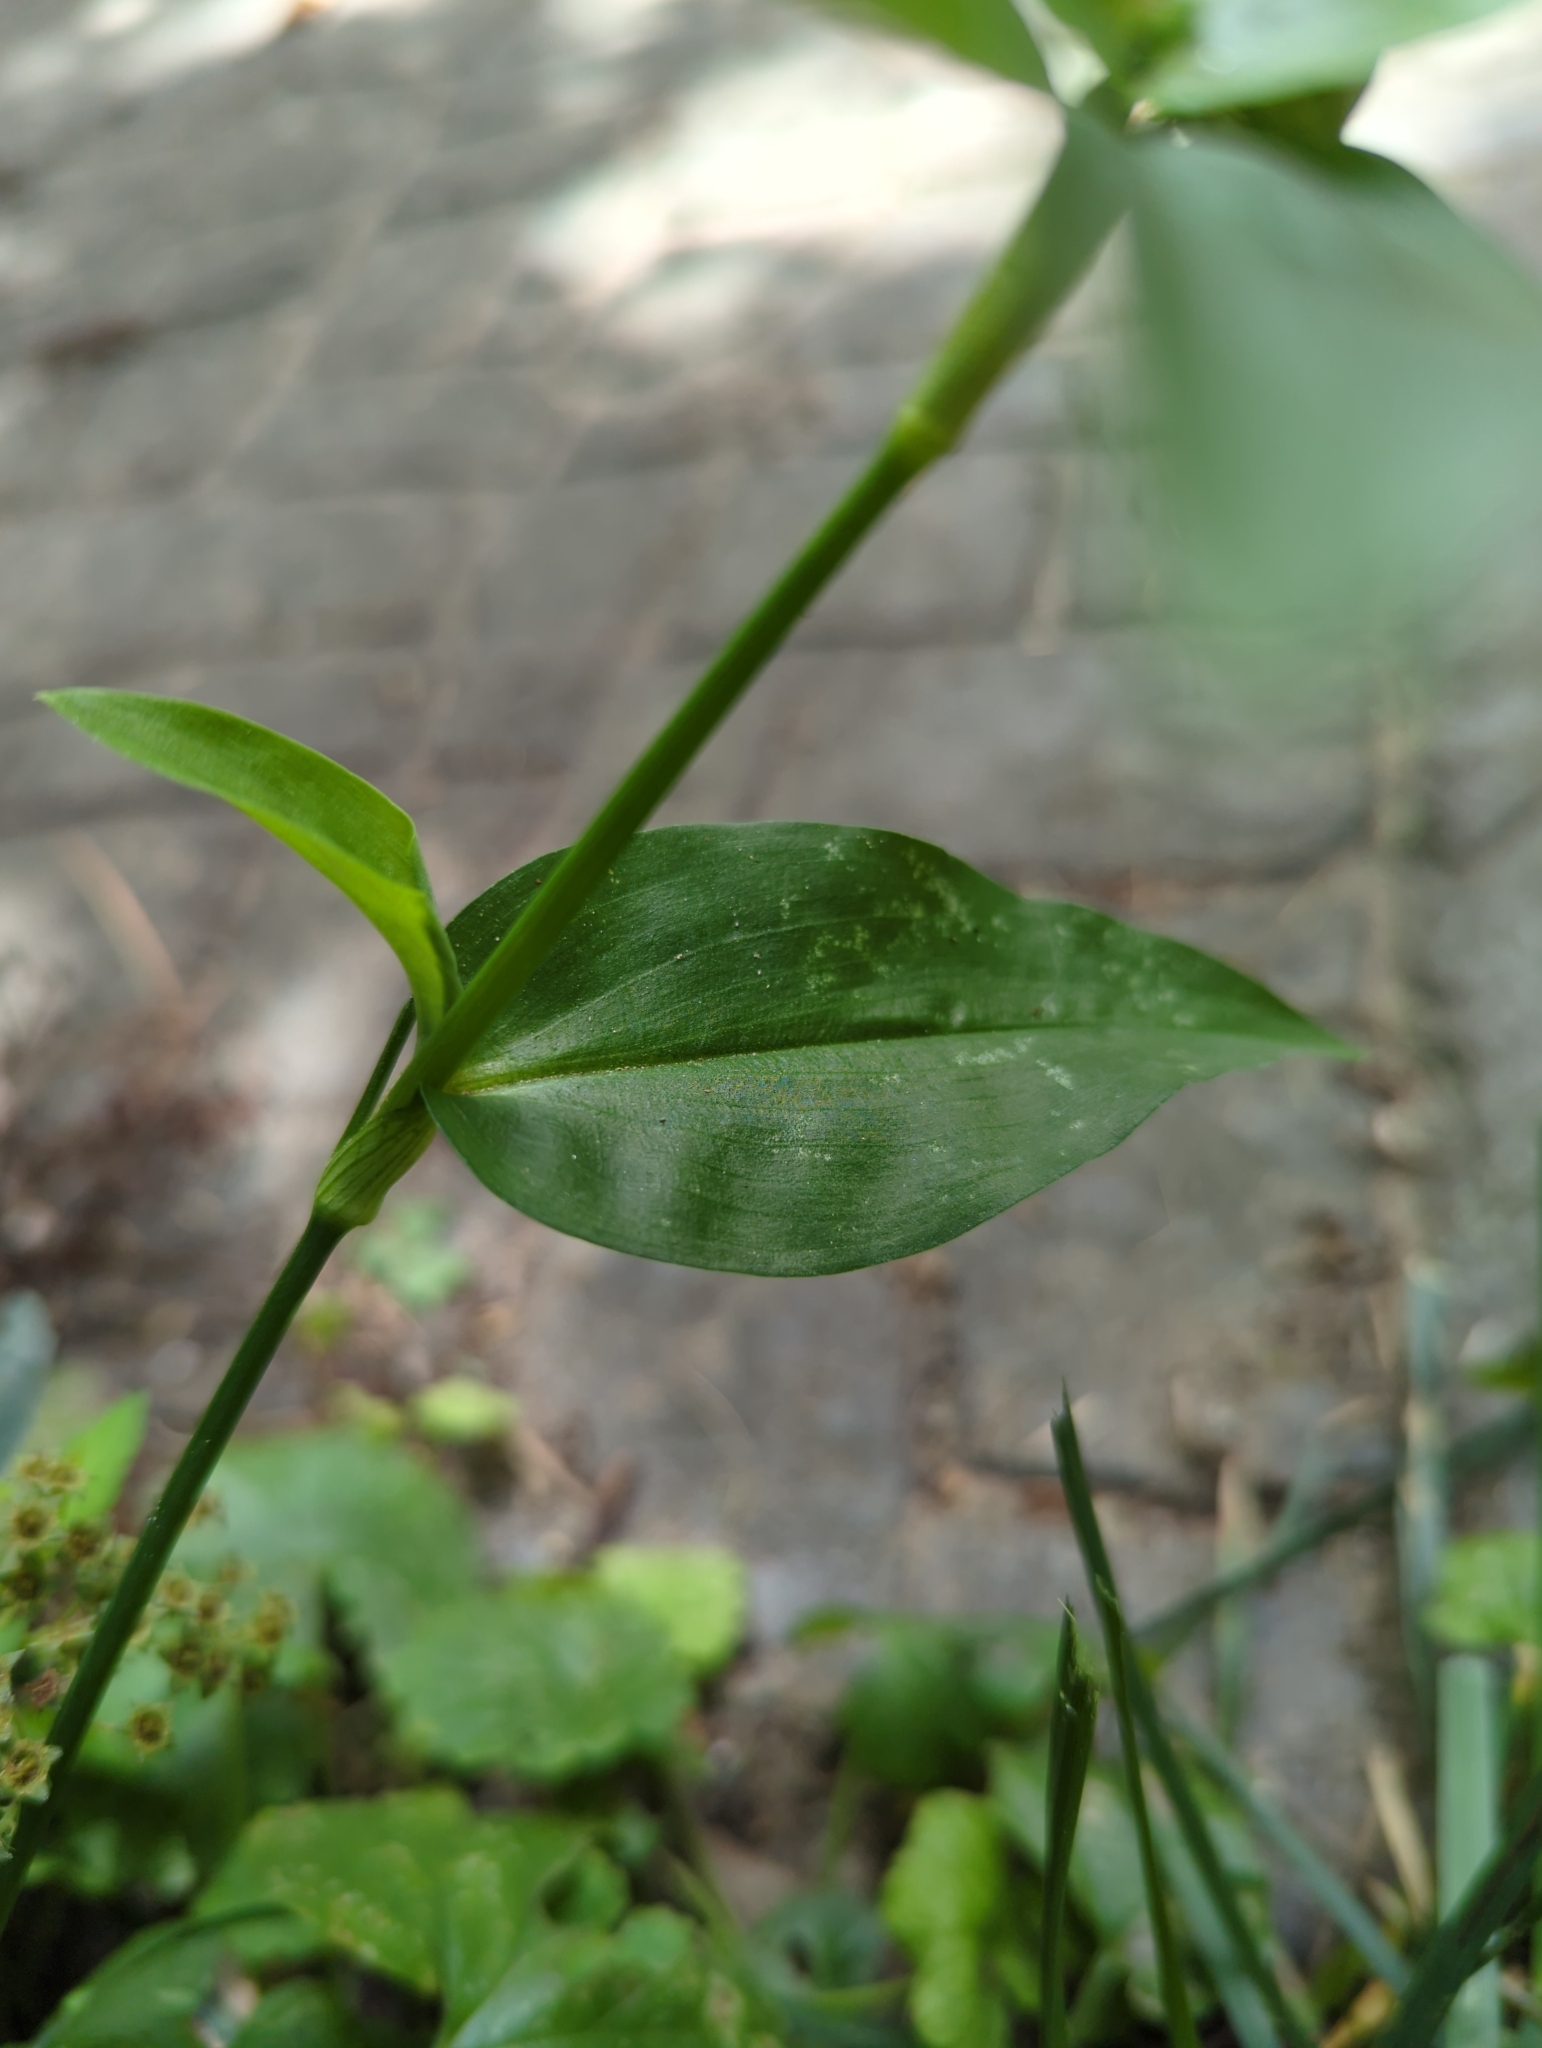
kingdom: Plantae
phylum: Tracheophyta
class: Liliopsida
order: Commelinales
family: Commelinaceae
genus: Commelina
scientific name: Commelina communis
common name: Asiatic dayflower
